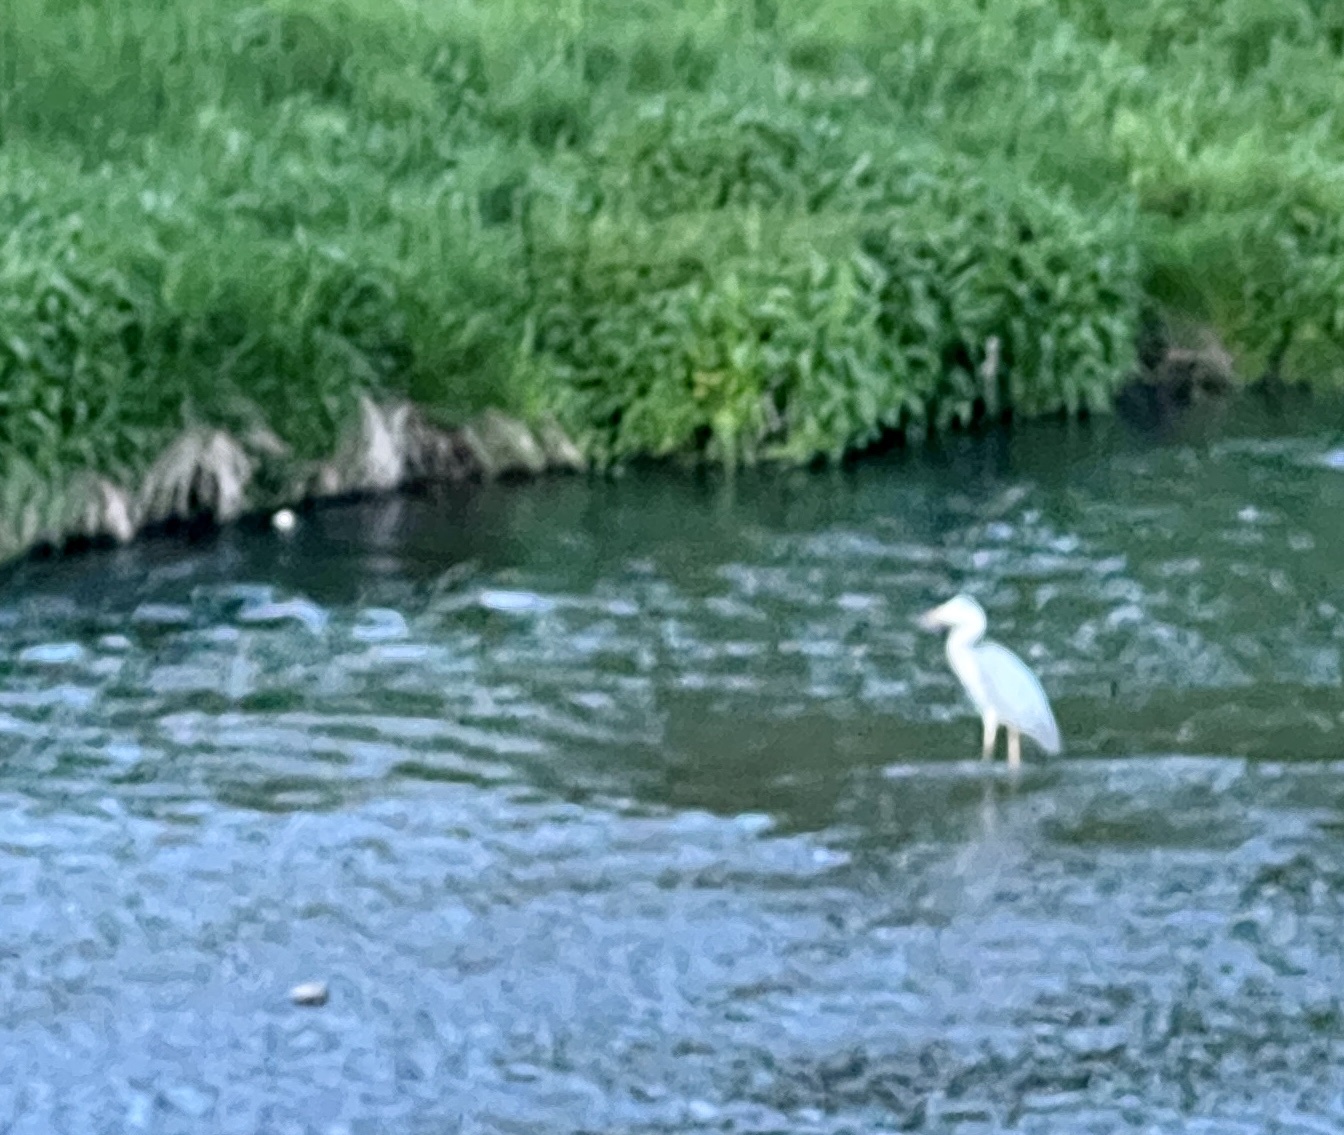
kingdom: Animalia
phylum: Chordata
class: Aves
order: Pelecaniformes
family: Ardeidae
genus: Ardea
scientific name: Ardea cinerea
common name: Grey heron
